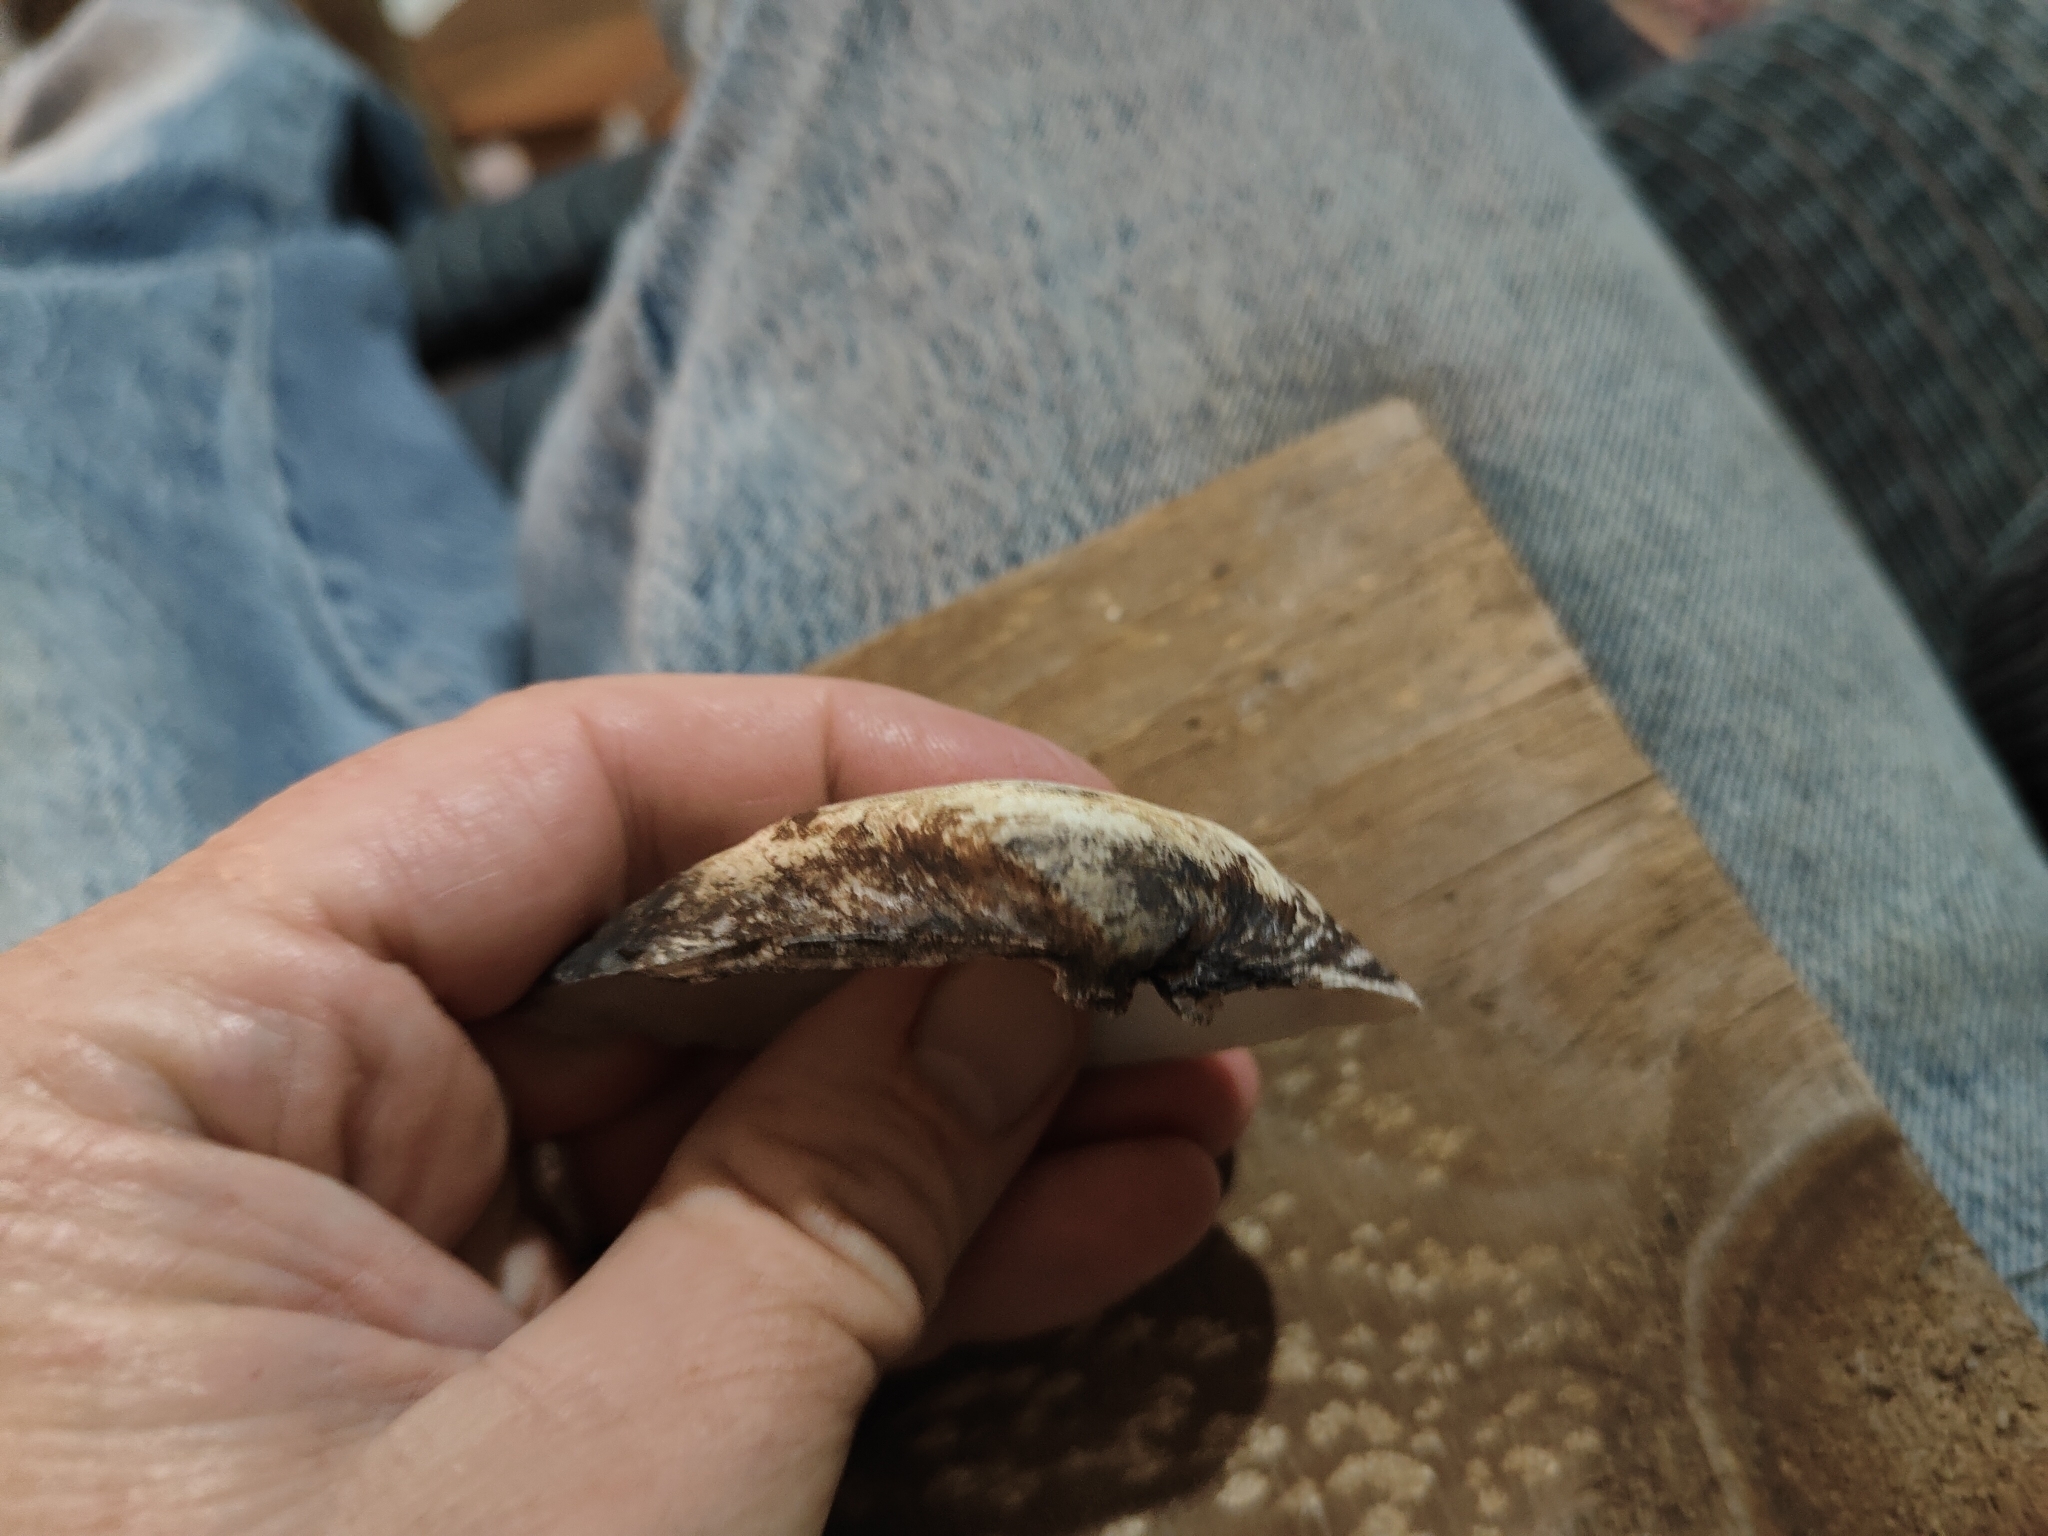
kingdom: Animalia
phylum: Mollusca
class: Bivalvia
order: Unionida
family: Unionidae
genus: Truncilla
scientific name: Truncilla truncata
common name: Deertoe
